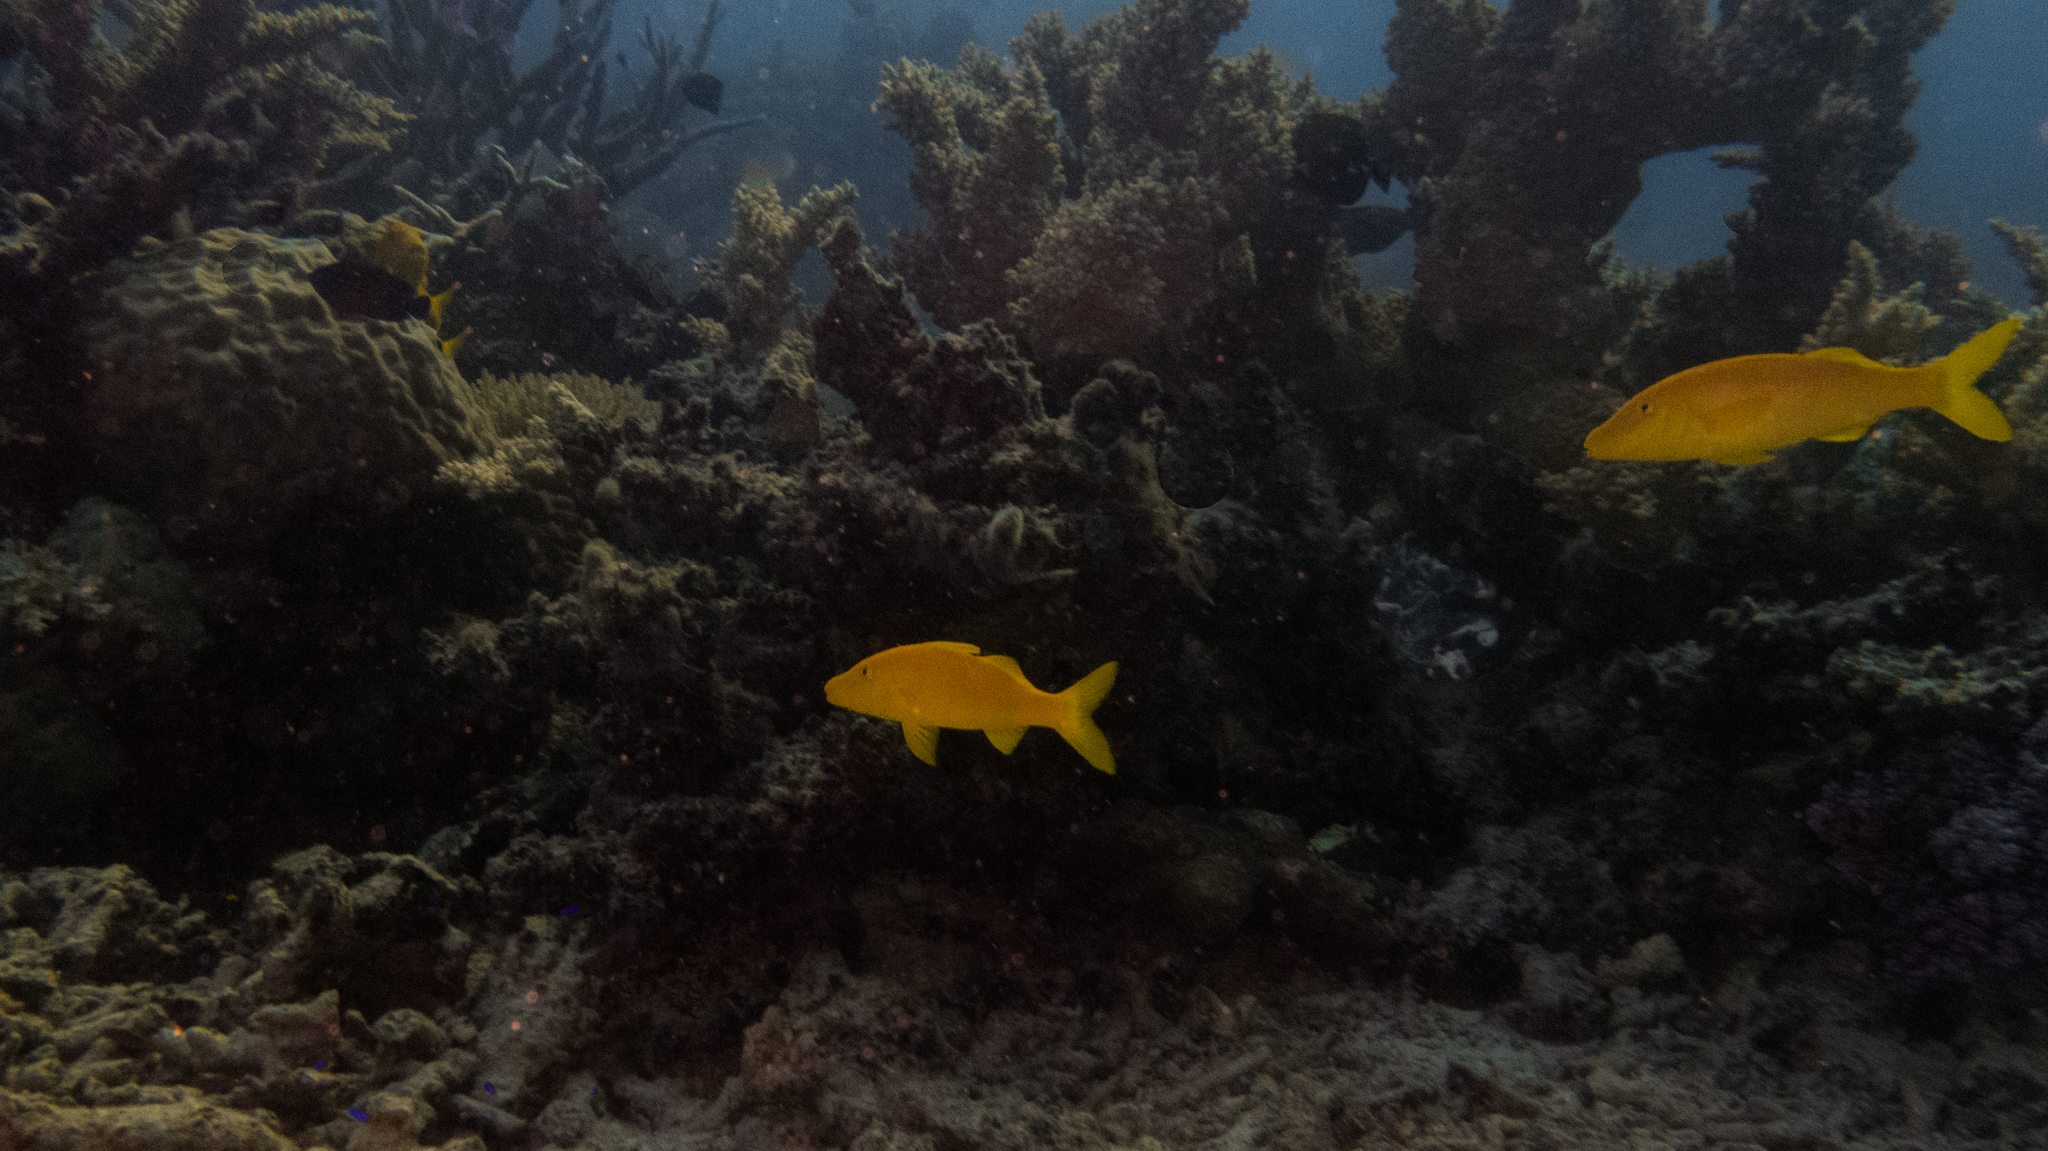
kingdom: Animalia
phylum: Chordata
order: Perciformes
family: Mullidae
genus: Parupeneus
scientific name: Parupeneus cyclostomus
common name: Goldsaddle goatfish
